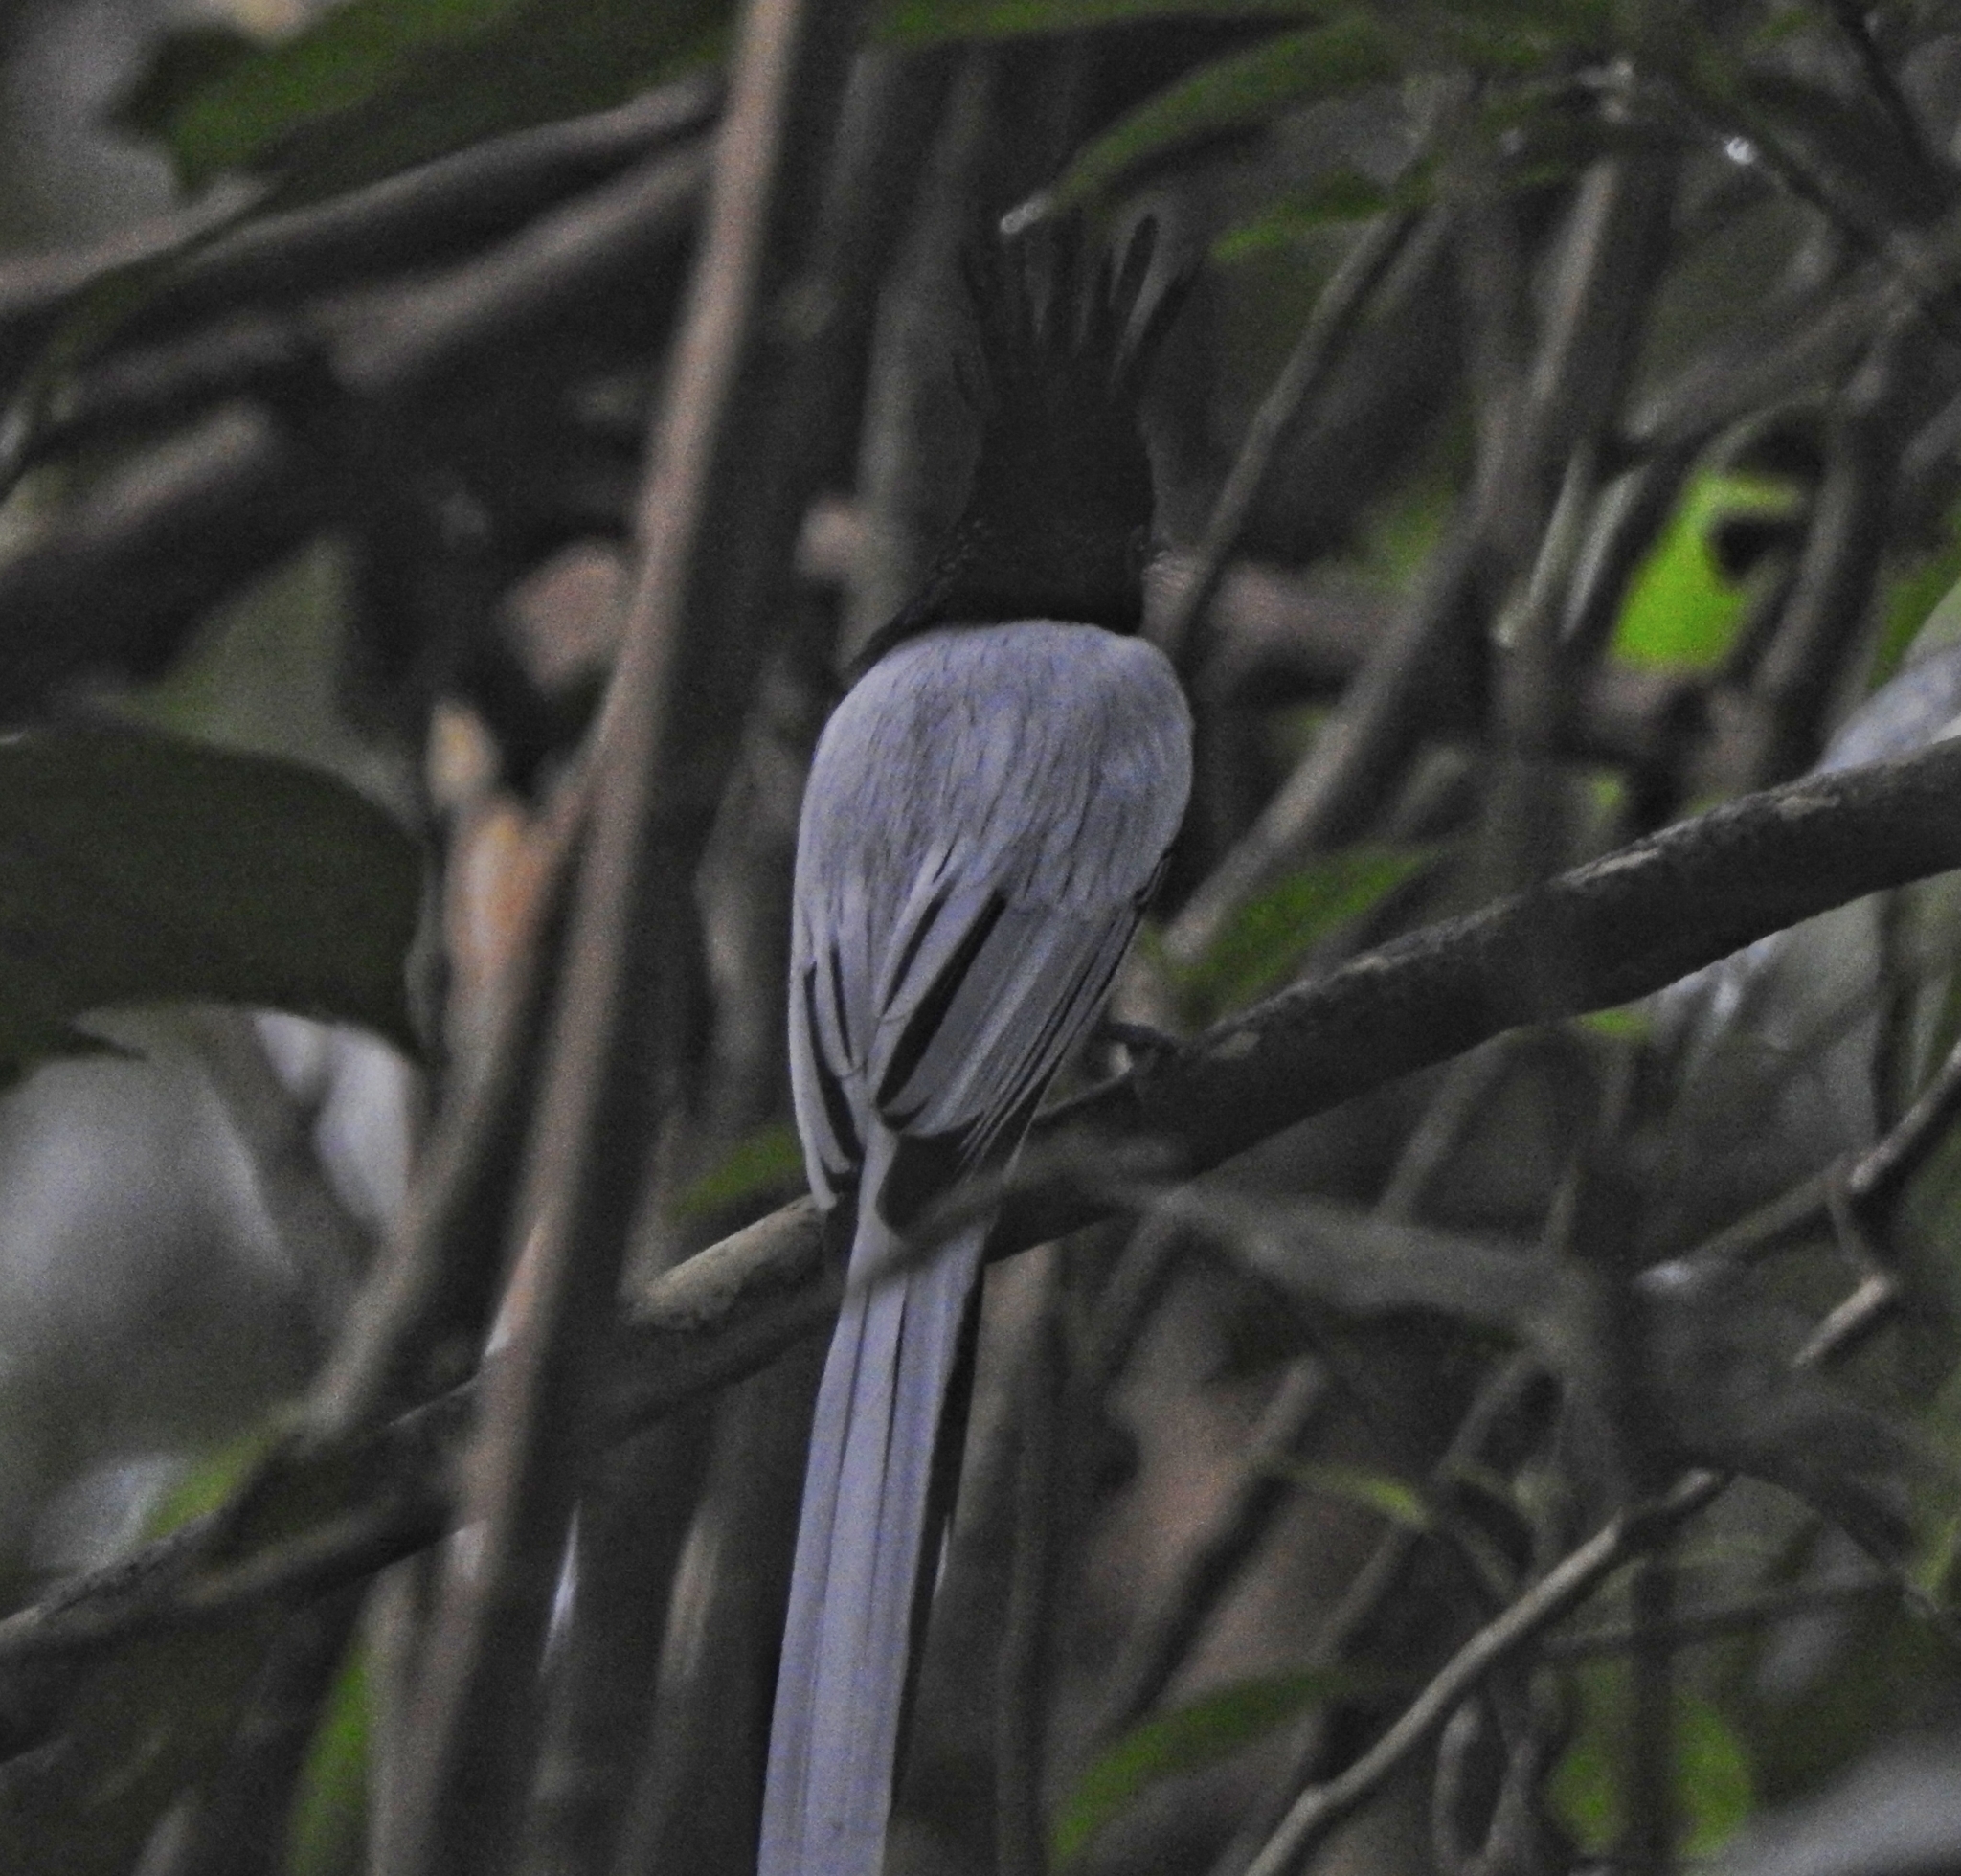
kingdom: Animalia
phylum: Chordata
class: Aves
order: Passeriformes
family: Monarchidae
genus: Terpsiphone
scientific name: Terpsiphone paradisi
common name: Indian paradise flycatcher
